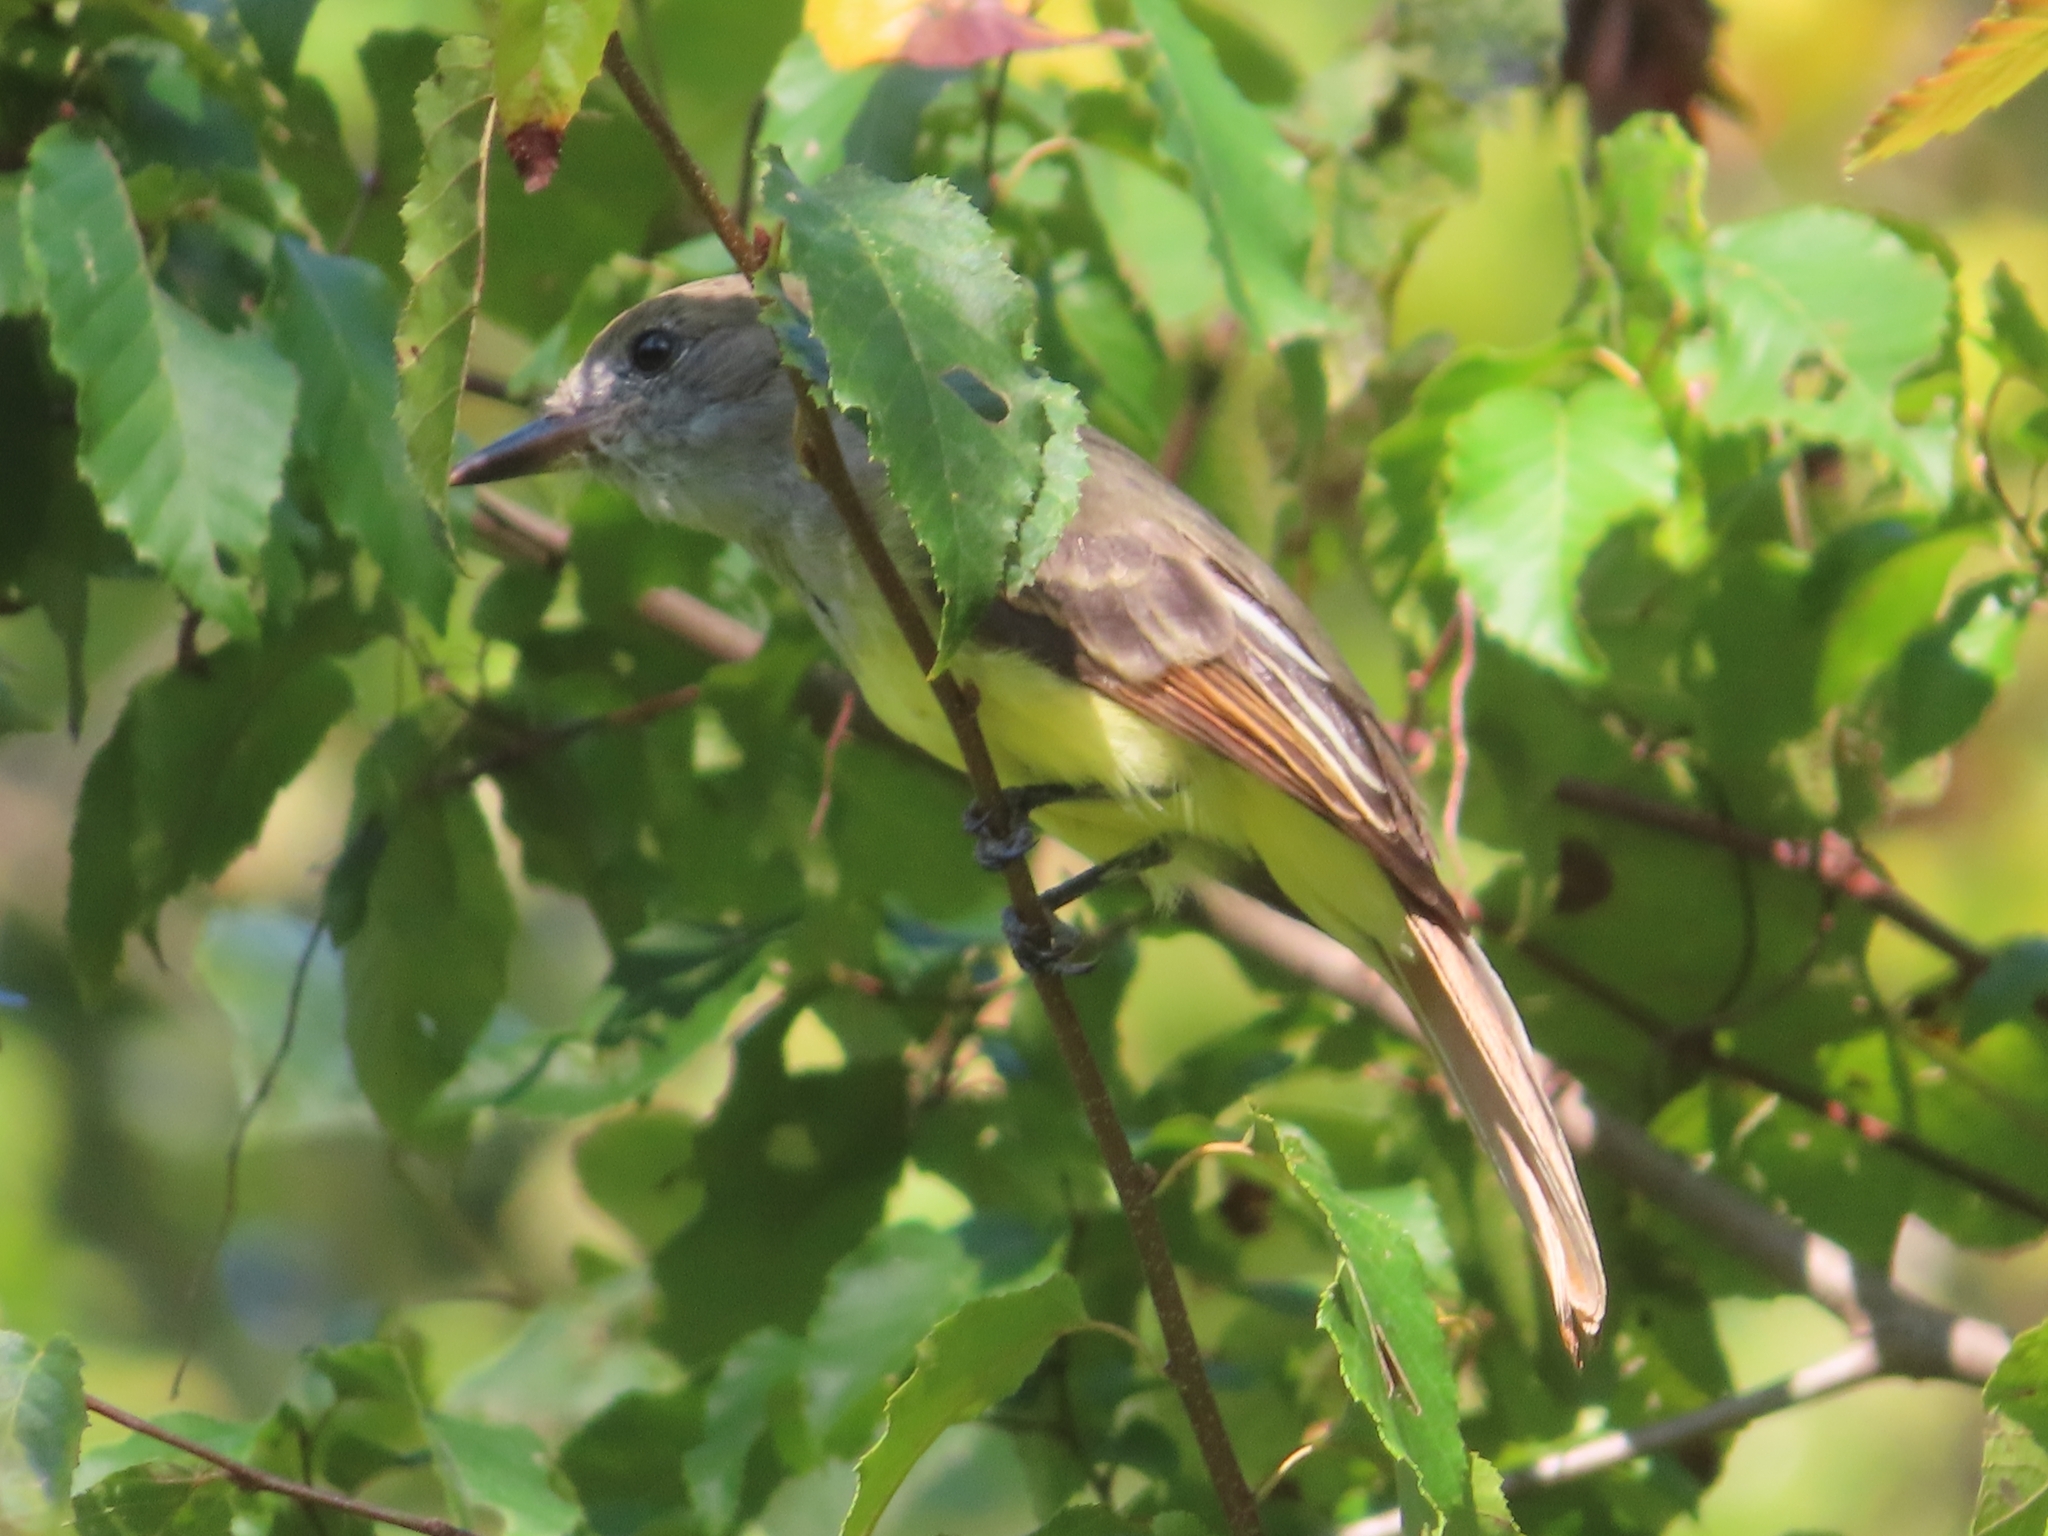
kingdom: Animalia
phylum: Chordata
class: Aves
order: Passeriformes
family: Tyrannidae
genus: Myiarchus
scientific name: Myiarchus crinitus
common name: Great crested flycatcher
